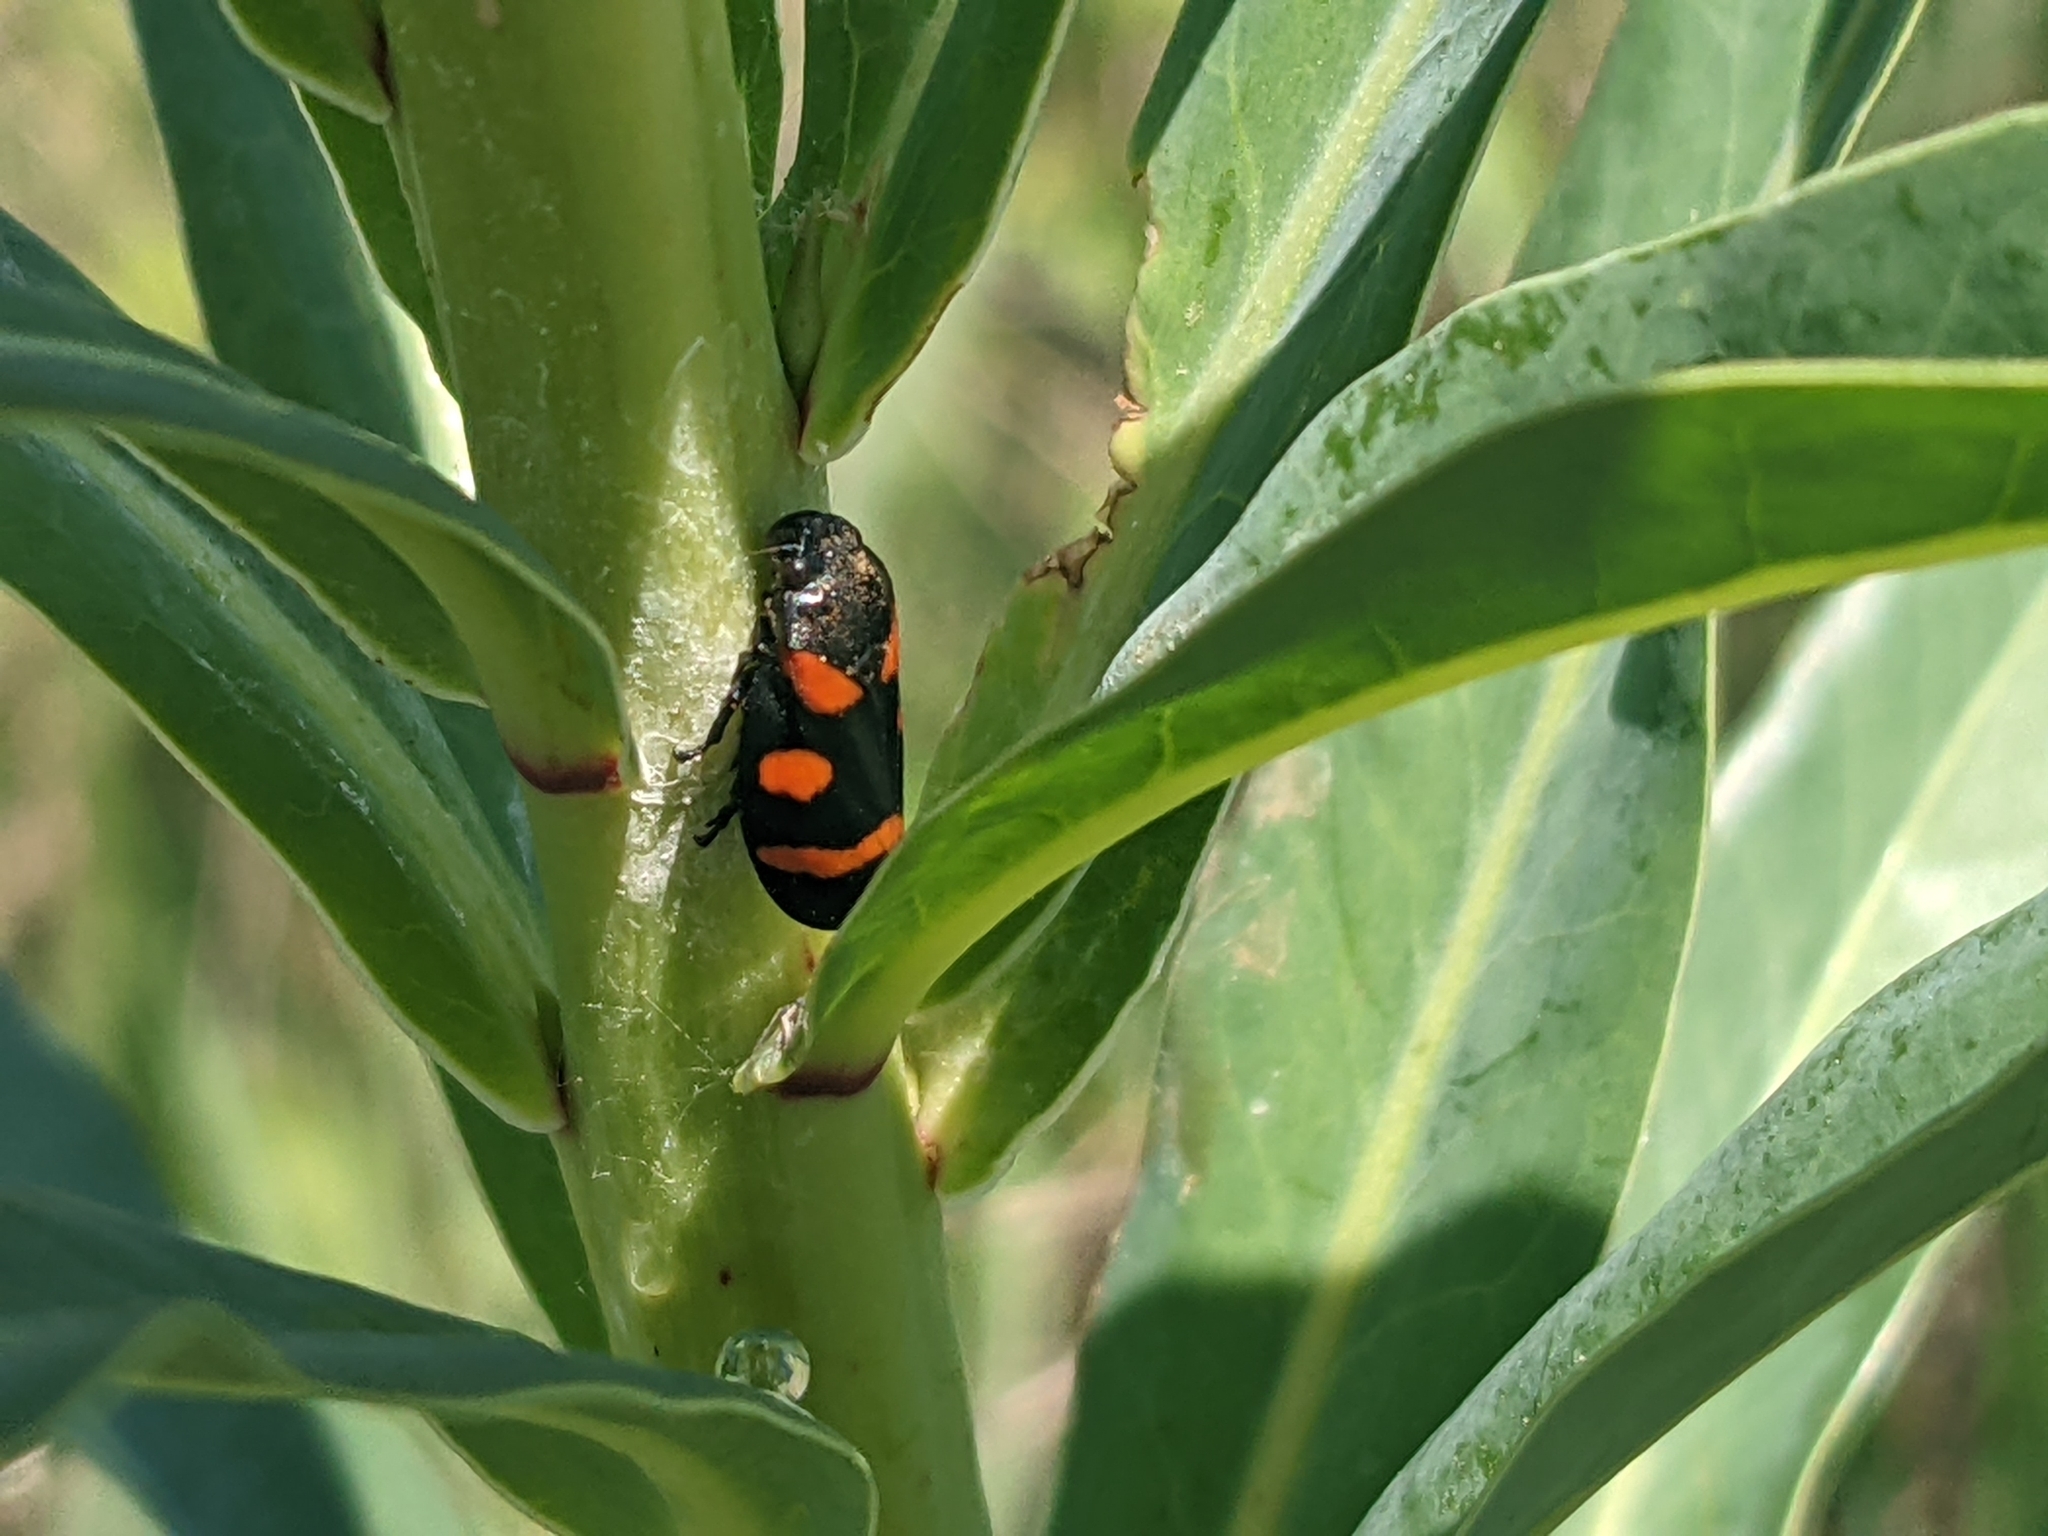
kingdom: Animalia
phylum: Arthropoda
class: Insecta
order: Hemiptera
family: Cercopidae
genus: Cercopis
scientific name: Cercopis
